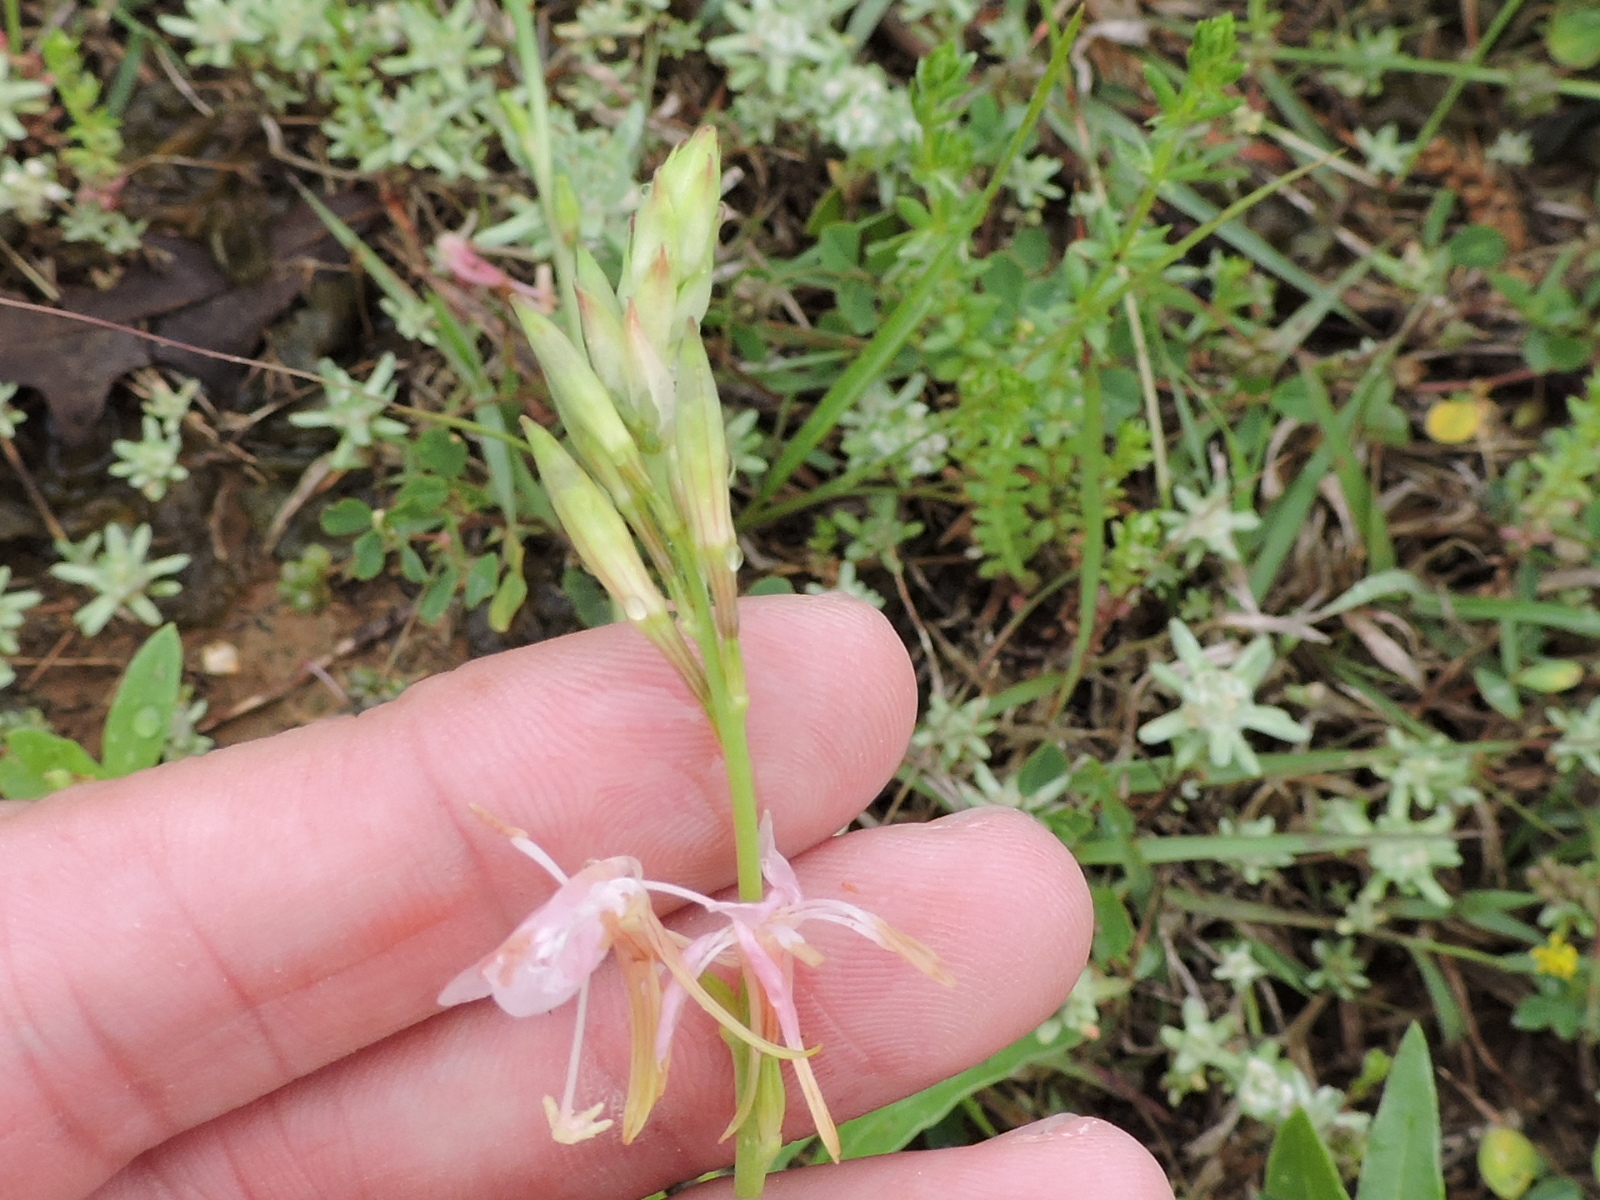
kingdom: Plantae
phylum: Tracheophyta
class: Magnoliopsida
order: Myrtales
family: Onagraceae
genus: Oenothera
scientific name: Oenothera suffulta
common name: Kisses
